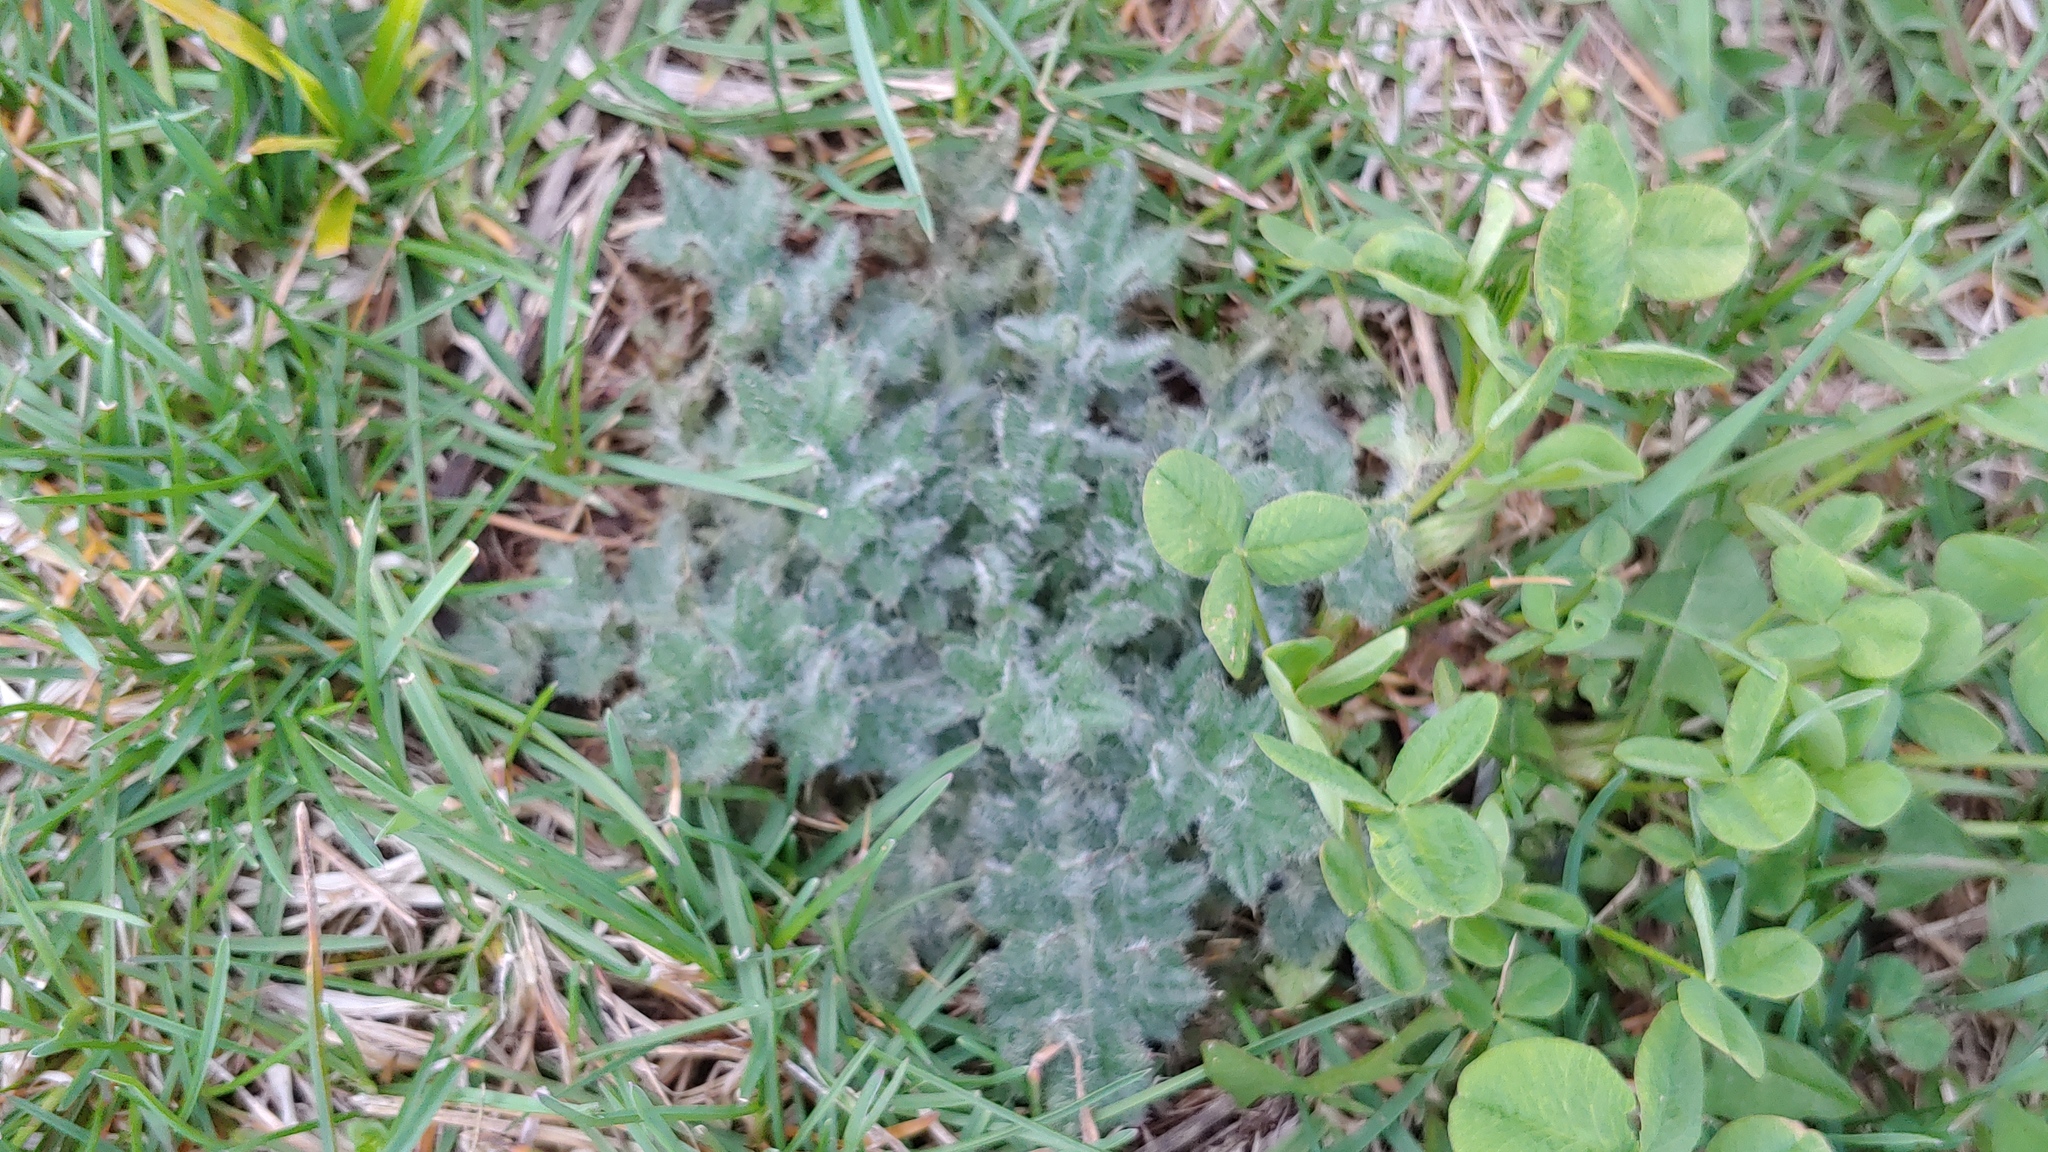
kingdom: Plantae
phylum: Tracheophyta
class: Magnoliopsida
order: Asterales
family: Asteraceae
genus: Cirsium
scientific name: Cirsium vulgare
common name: Bull thistle
